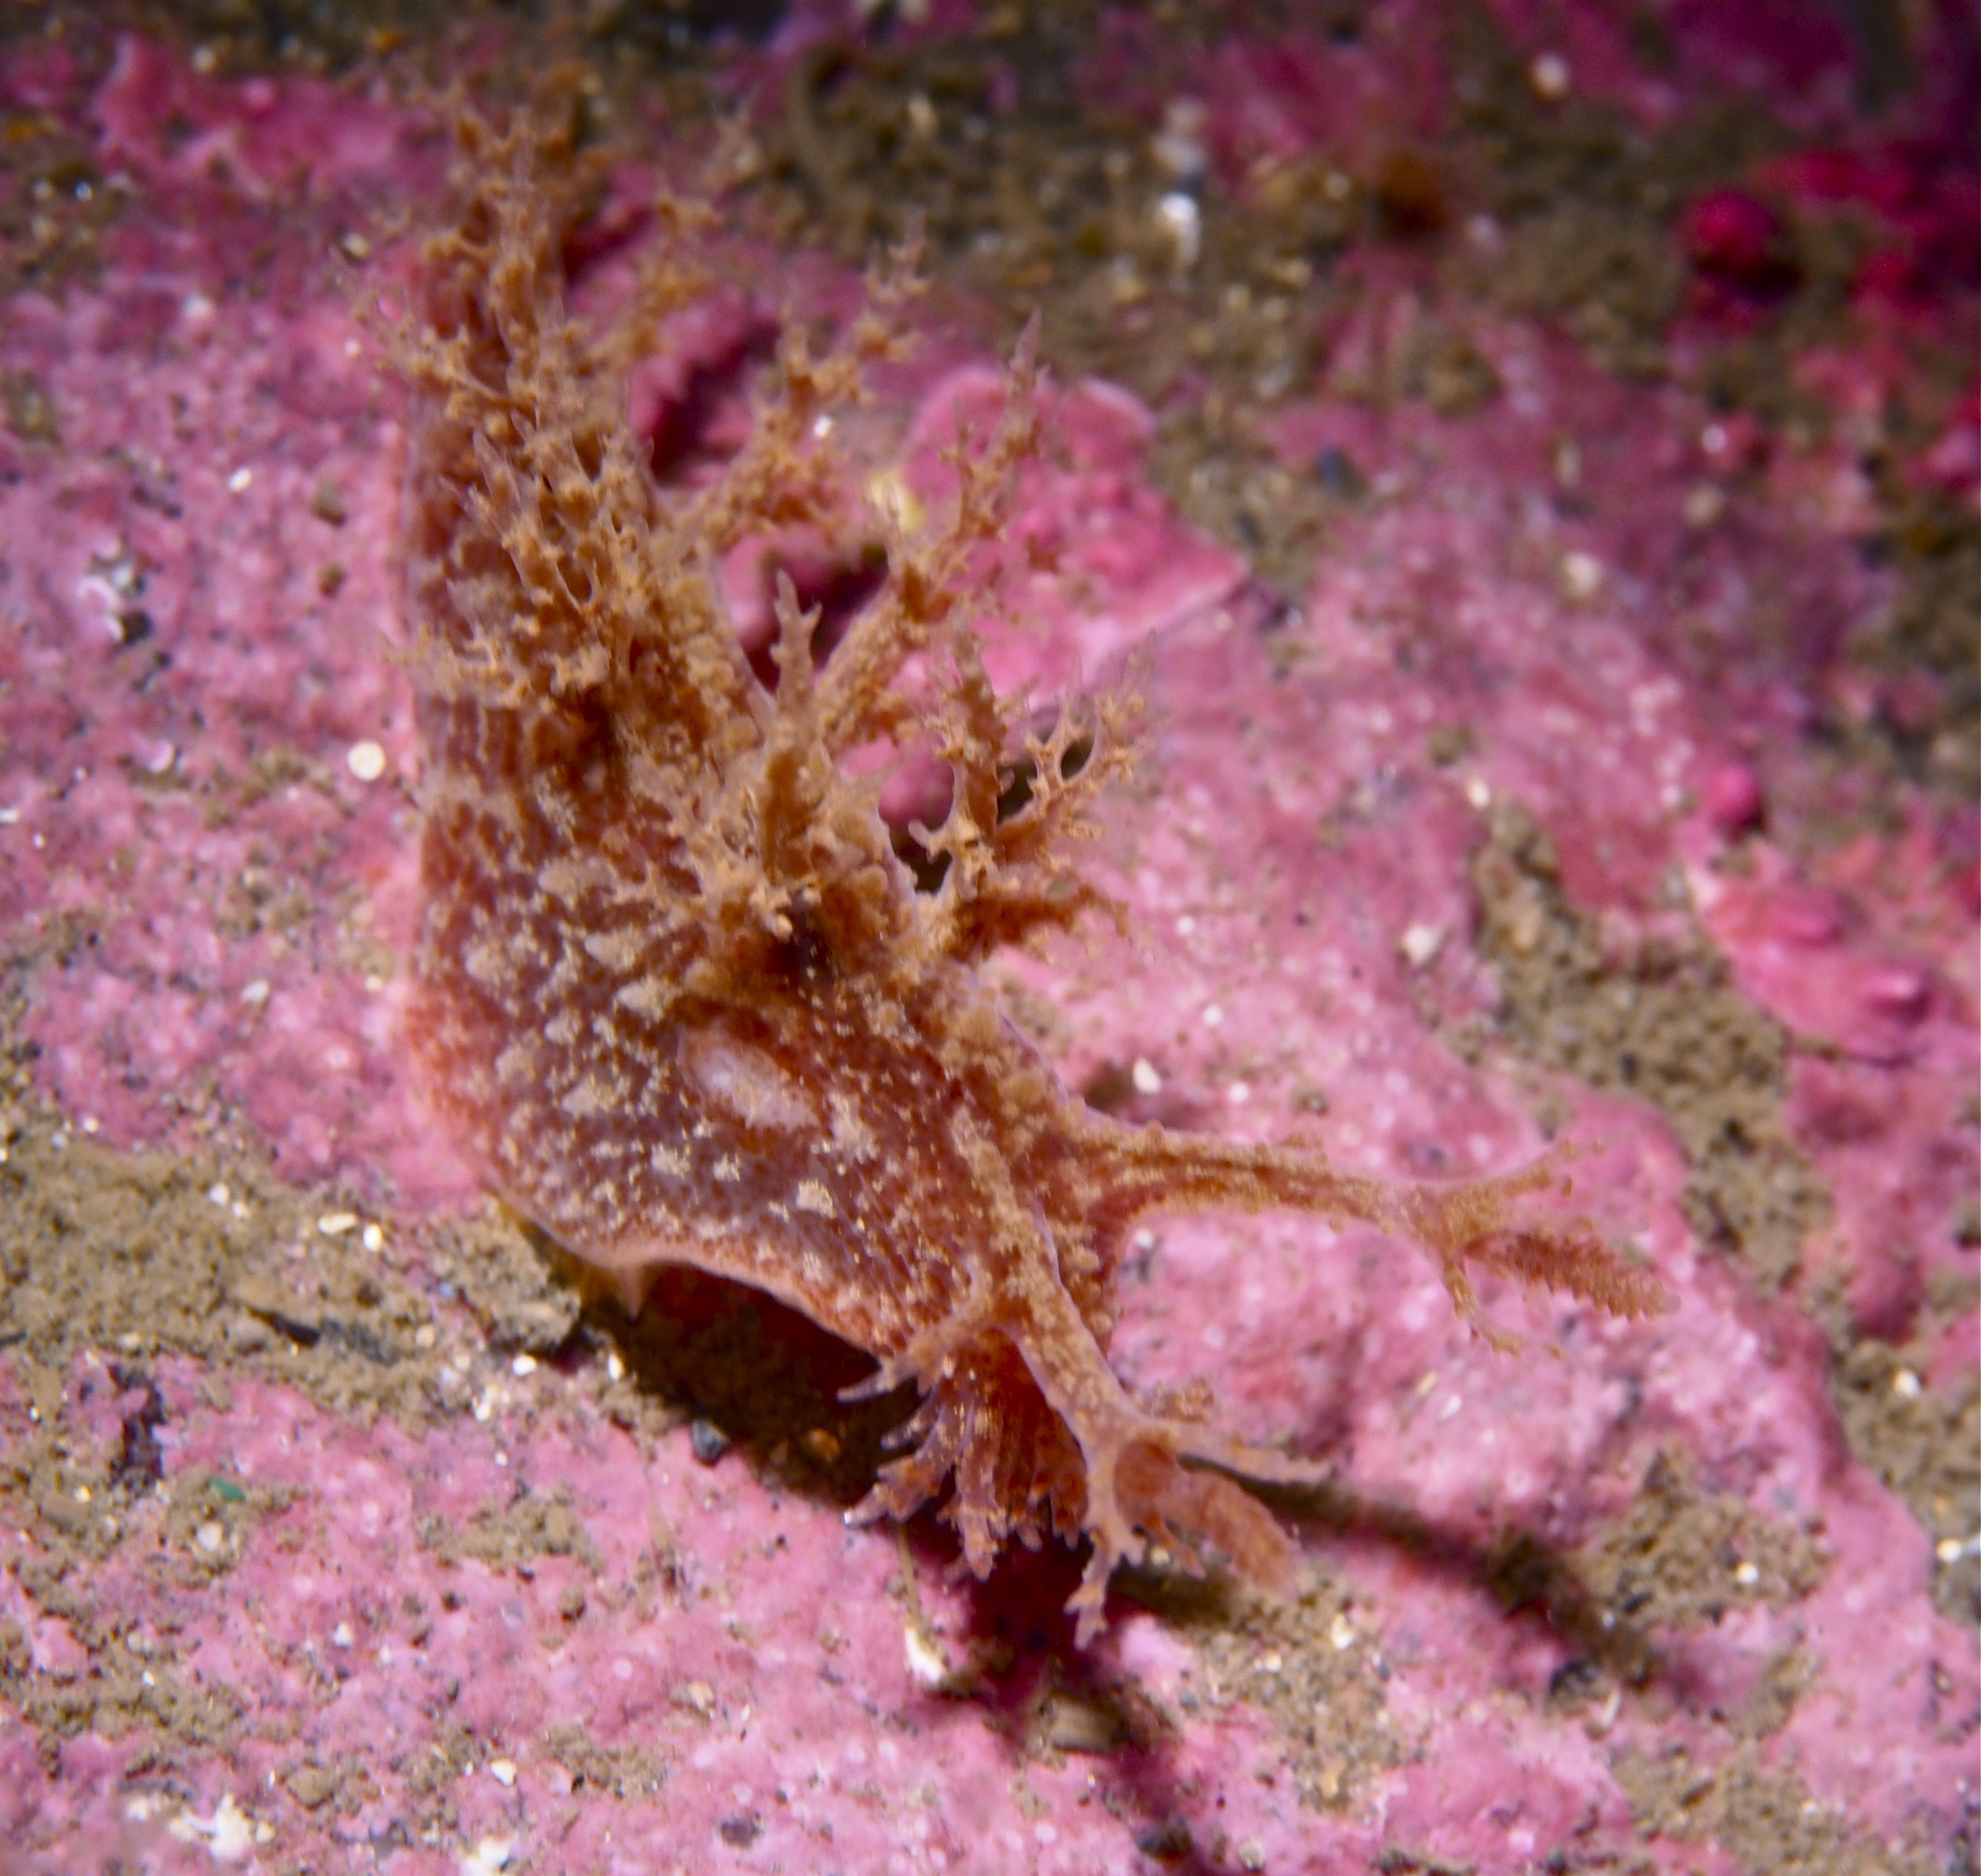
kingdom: Animalia
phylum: Mollusca
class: Gastropoda
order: Nudibranchia
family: Dendronotidae
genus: Dendronotus
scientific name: Dendronotus frondosus
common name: Bushy-backed nudibranch
